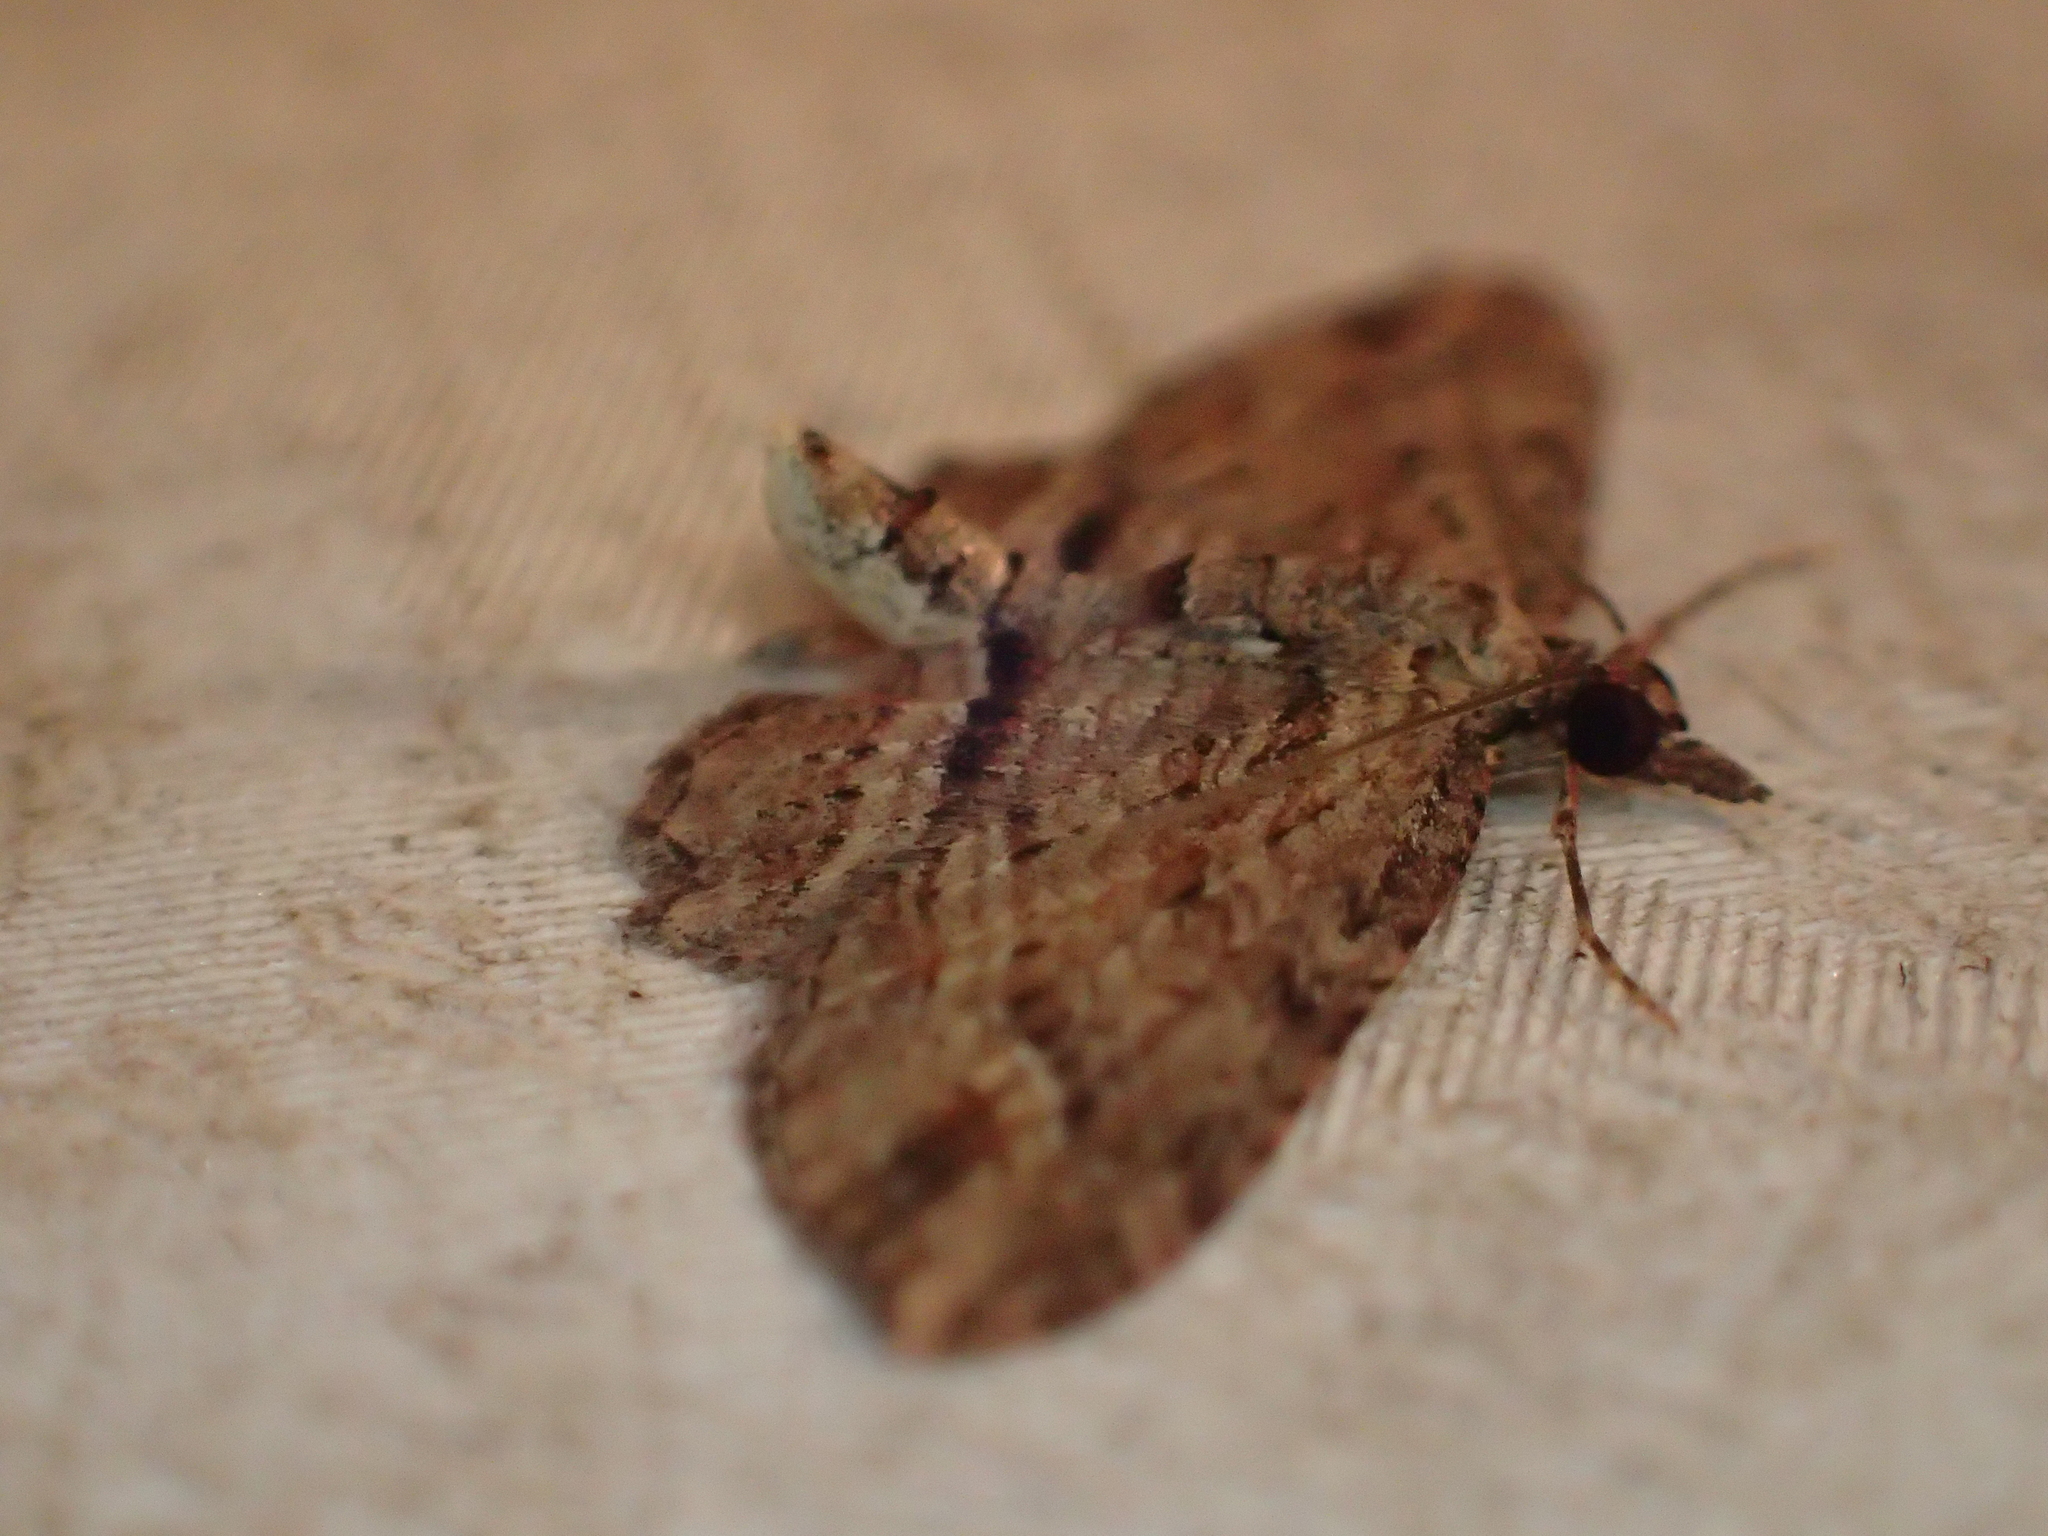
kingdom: Animalia
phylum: Arthropoda
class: Insecta
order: Lepidoptera
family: Geometridae
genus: Chloroclystis
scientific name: Chloroclystis filata
